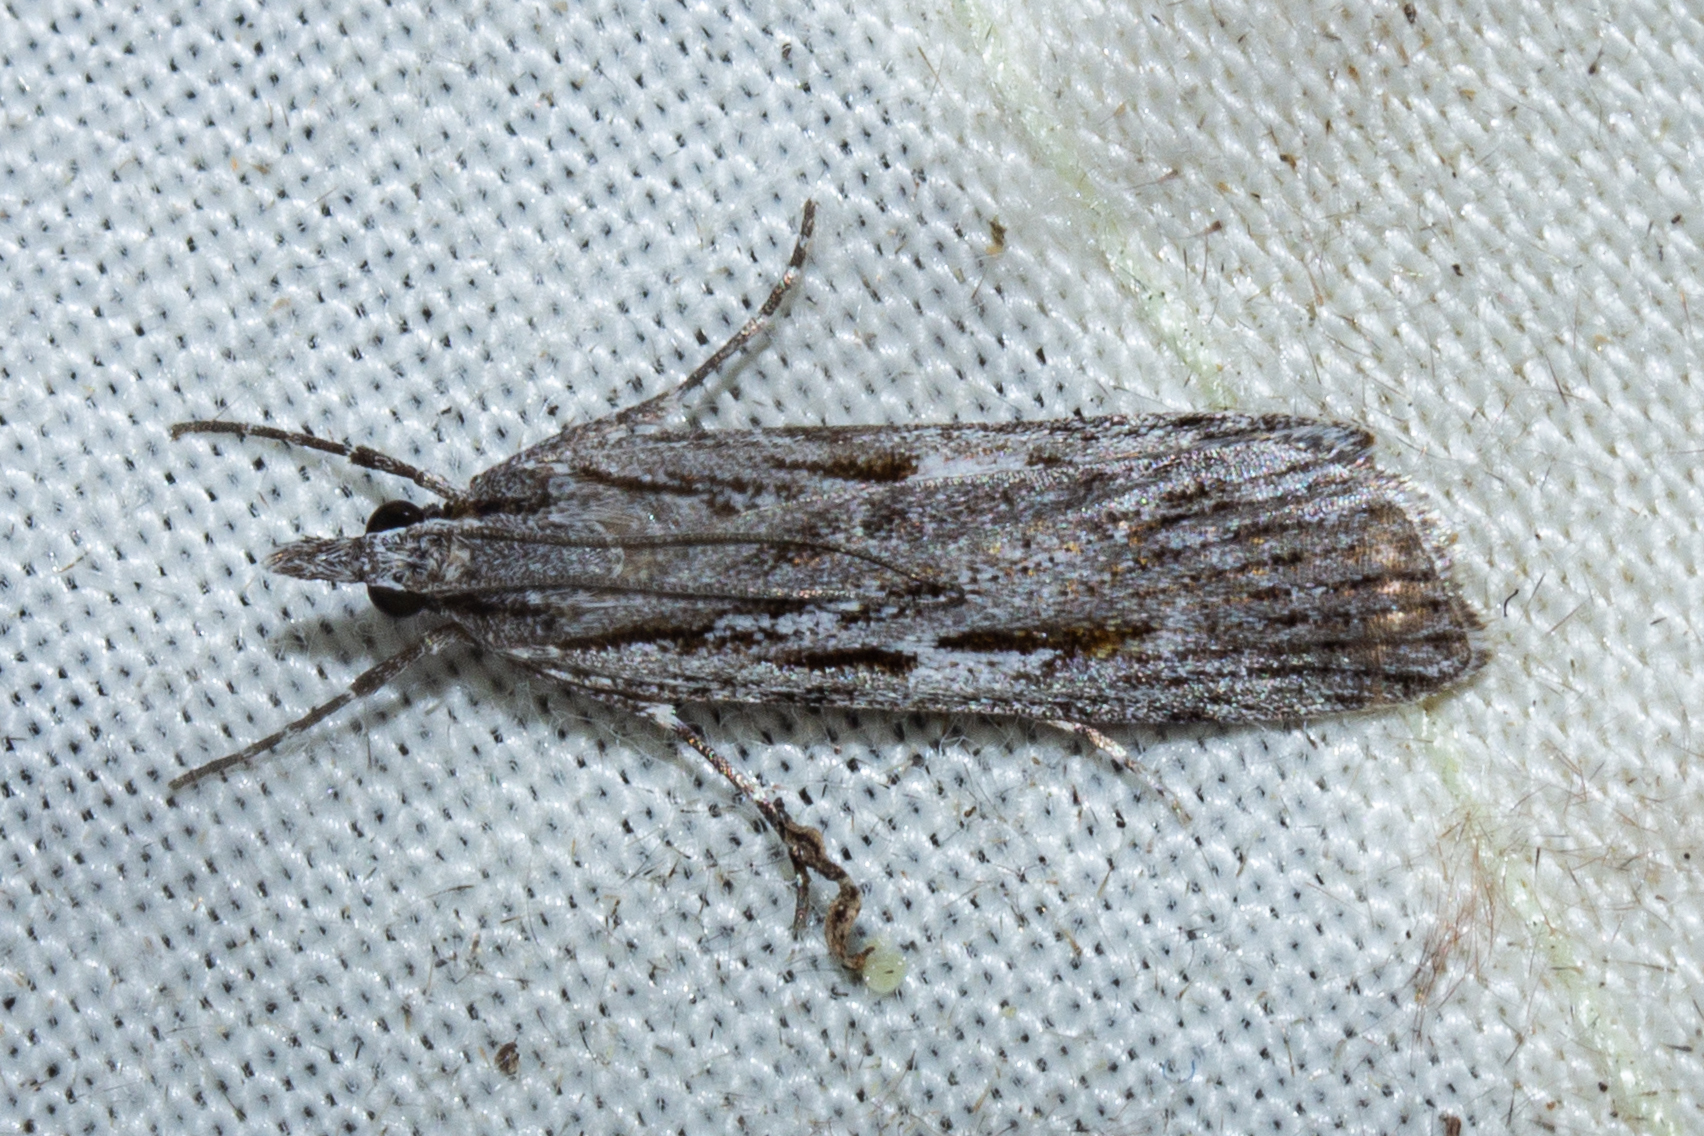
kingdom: Animalia
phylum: Arthropoda
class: Insecta
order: Lepidoptera
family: Crambidae
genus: Scoparia
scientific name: Scoparia indistinctalis
